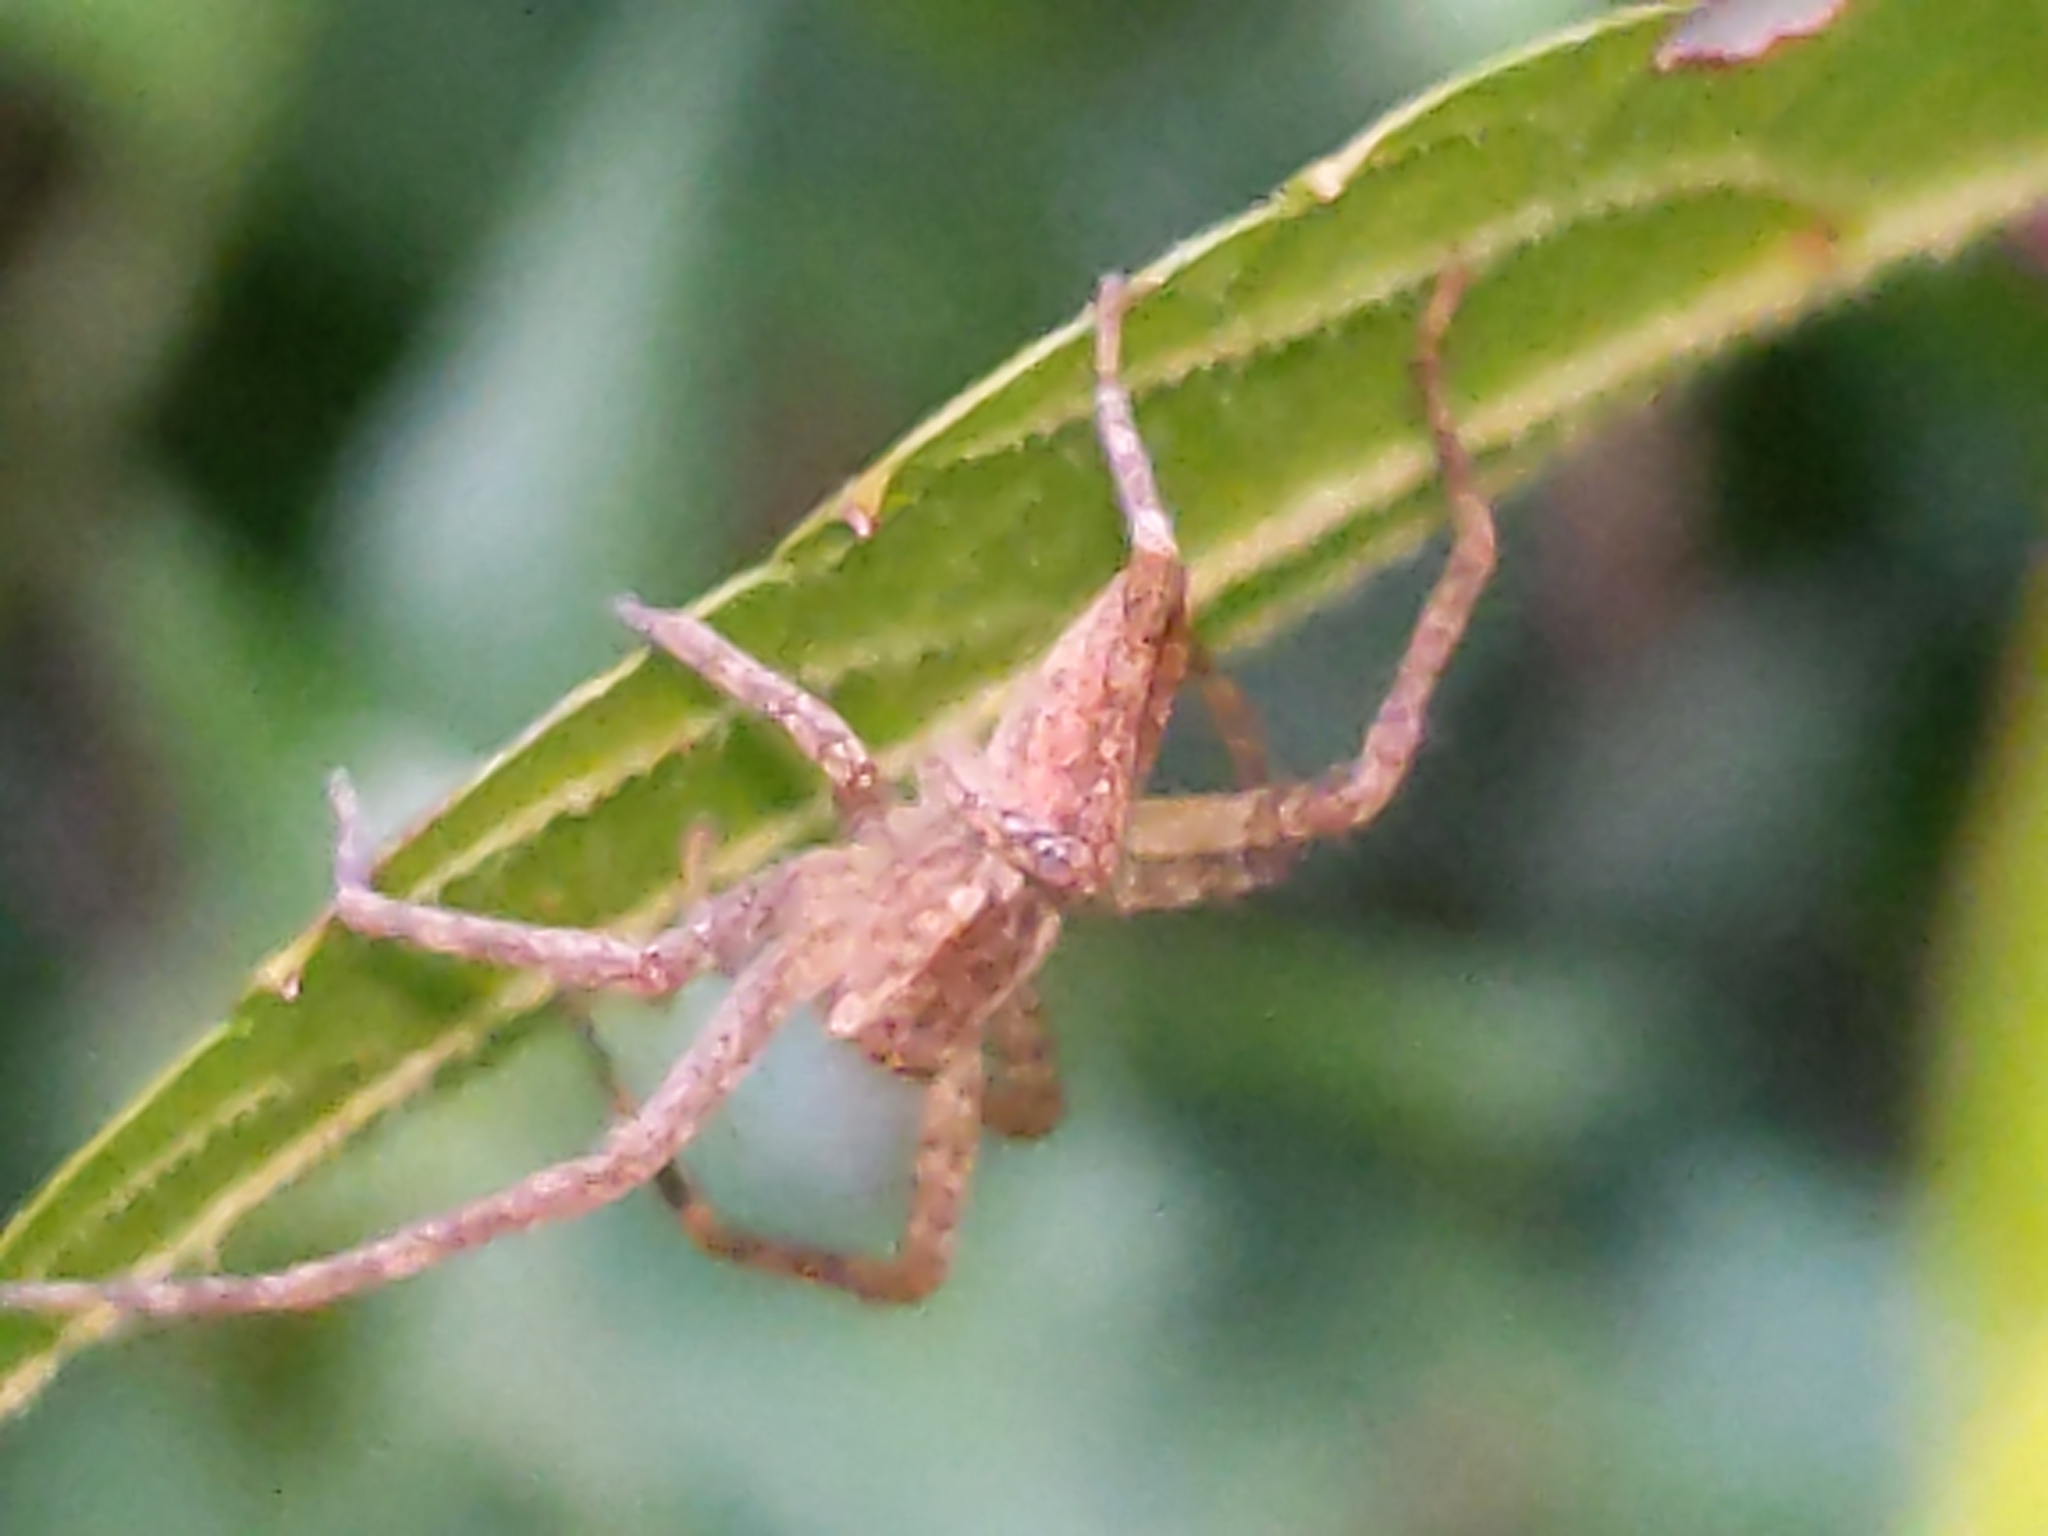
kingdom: Animalia
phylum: Arthropoda
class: Arachnida
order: Araneae
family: Pisauridae
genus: Pisaurina
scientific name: Pisaurina mira
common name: American nursery web spider
